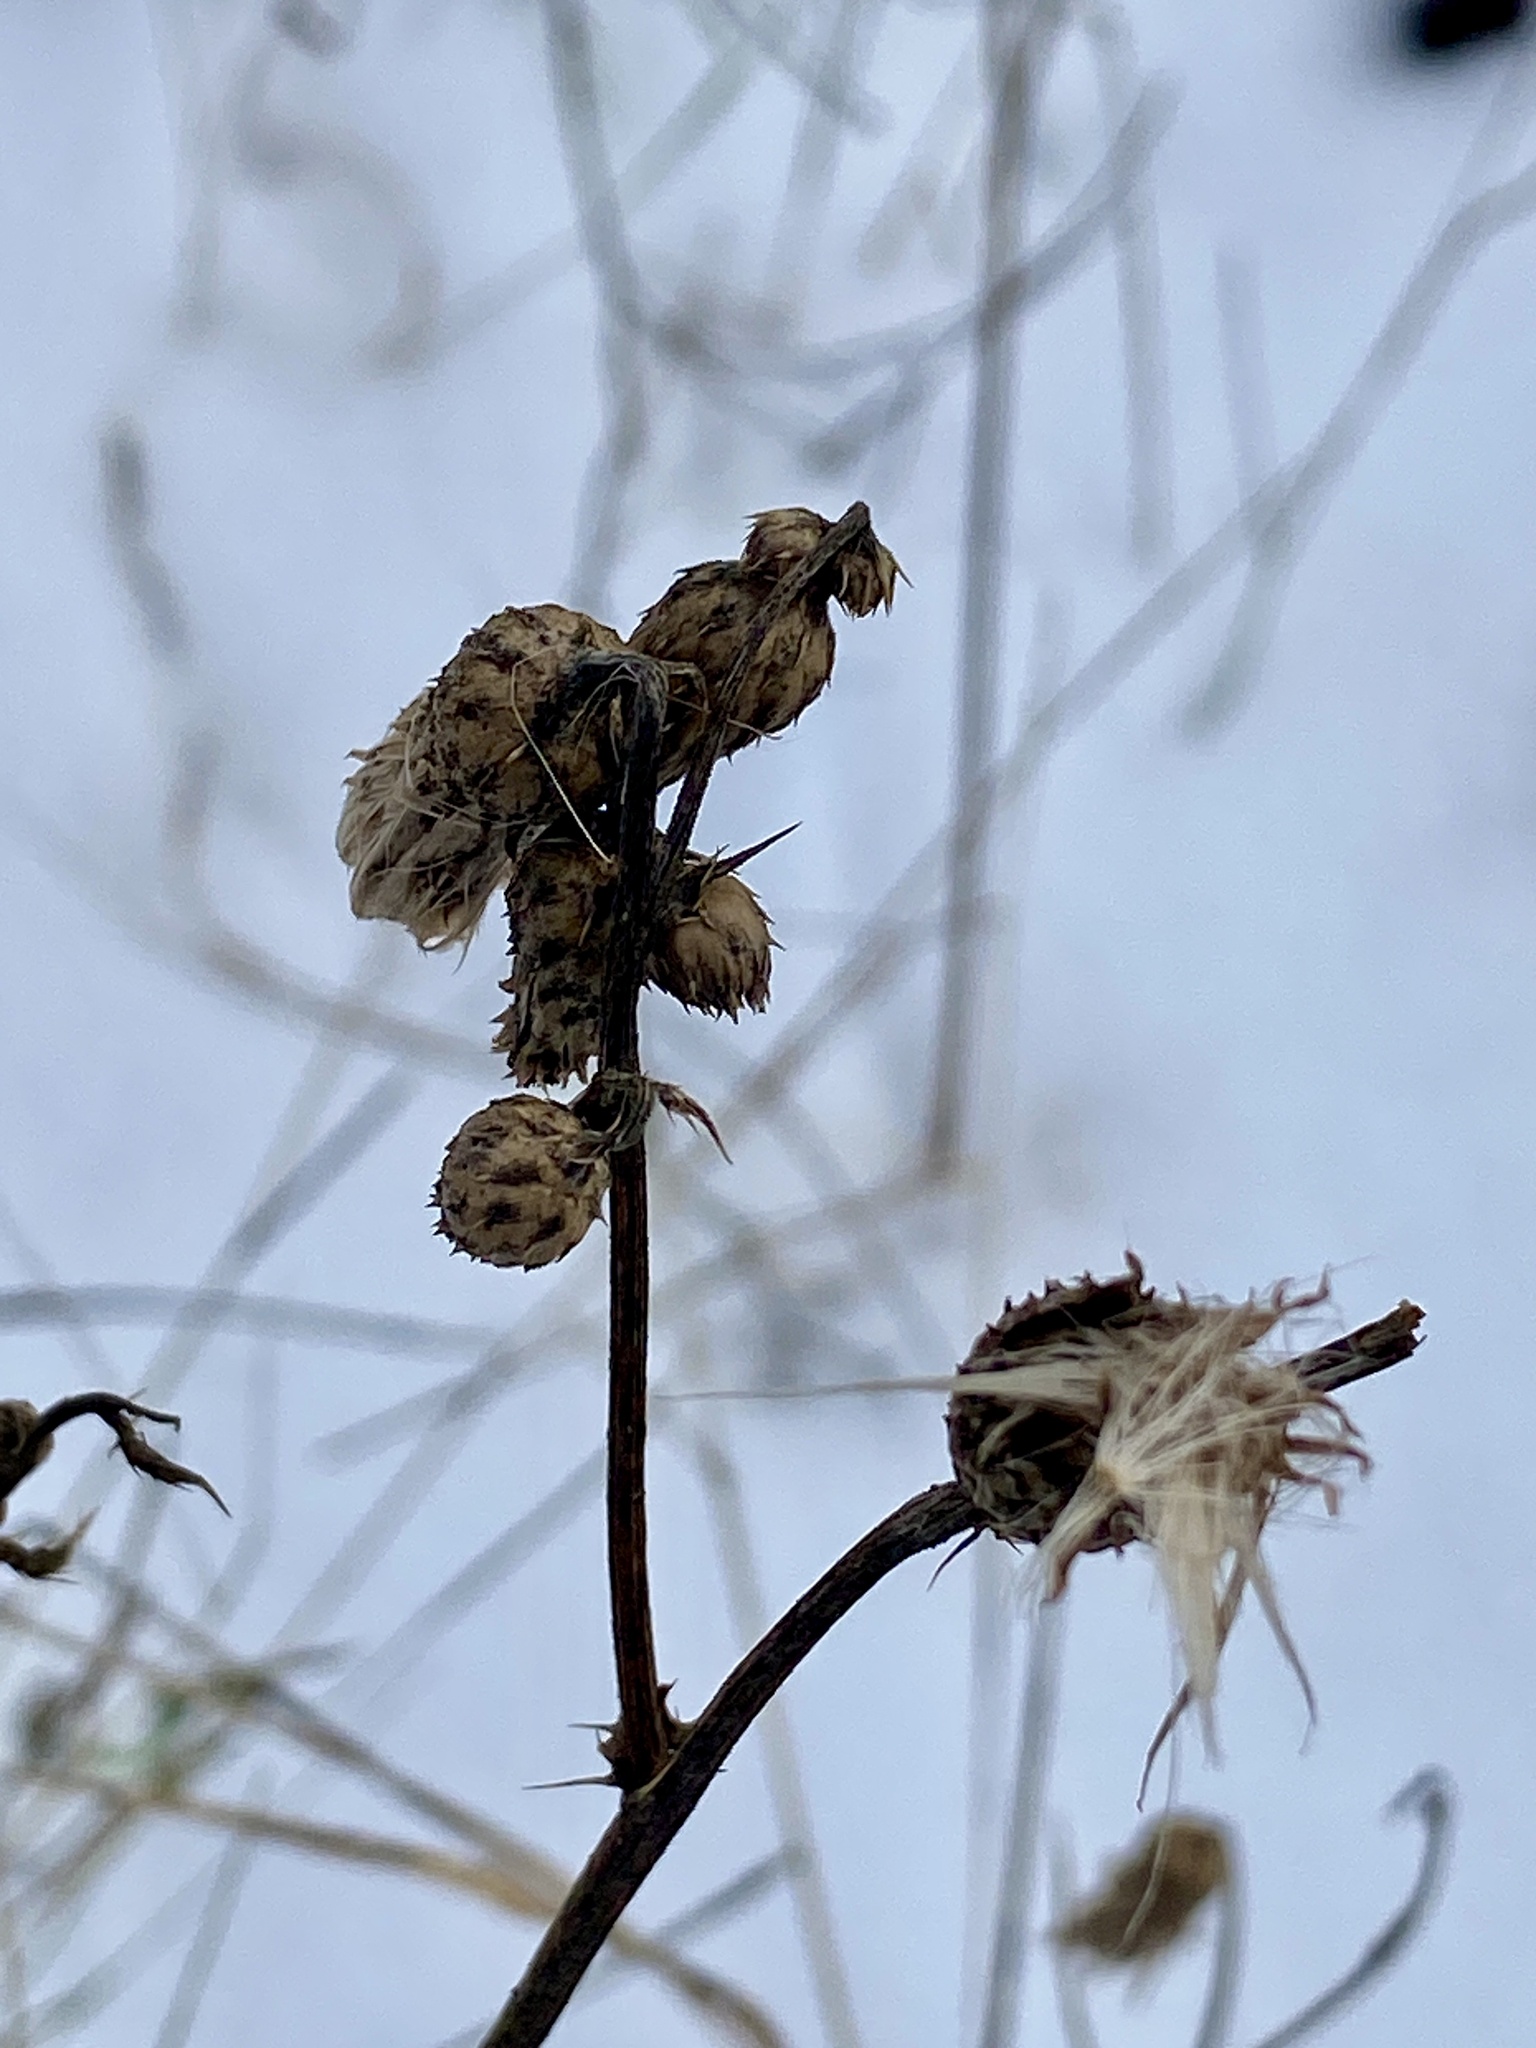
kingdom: Plantae
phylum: Tracheophyta
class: Magnoliopsida
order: Asterales
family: Asteraceae
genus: Cirsium
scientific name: Cirsium arvense
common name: Creeping thistle
